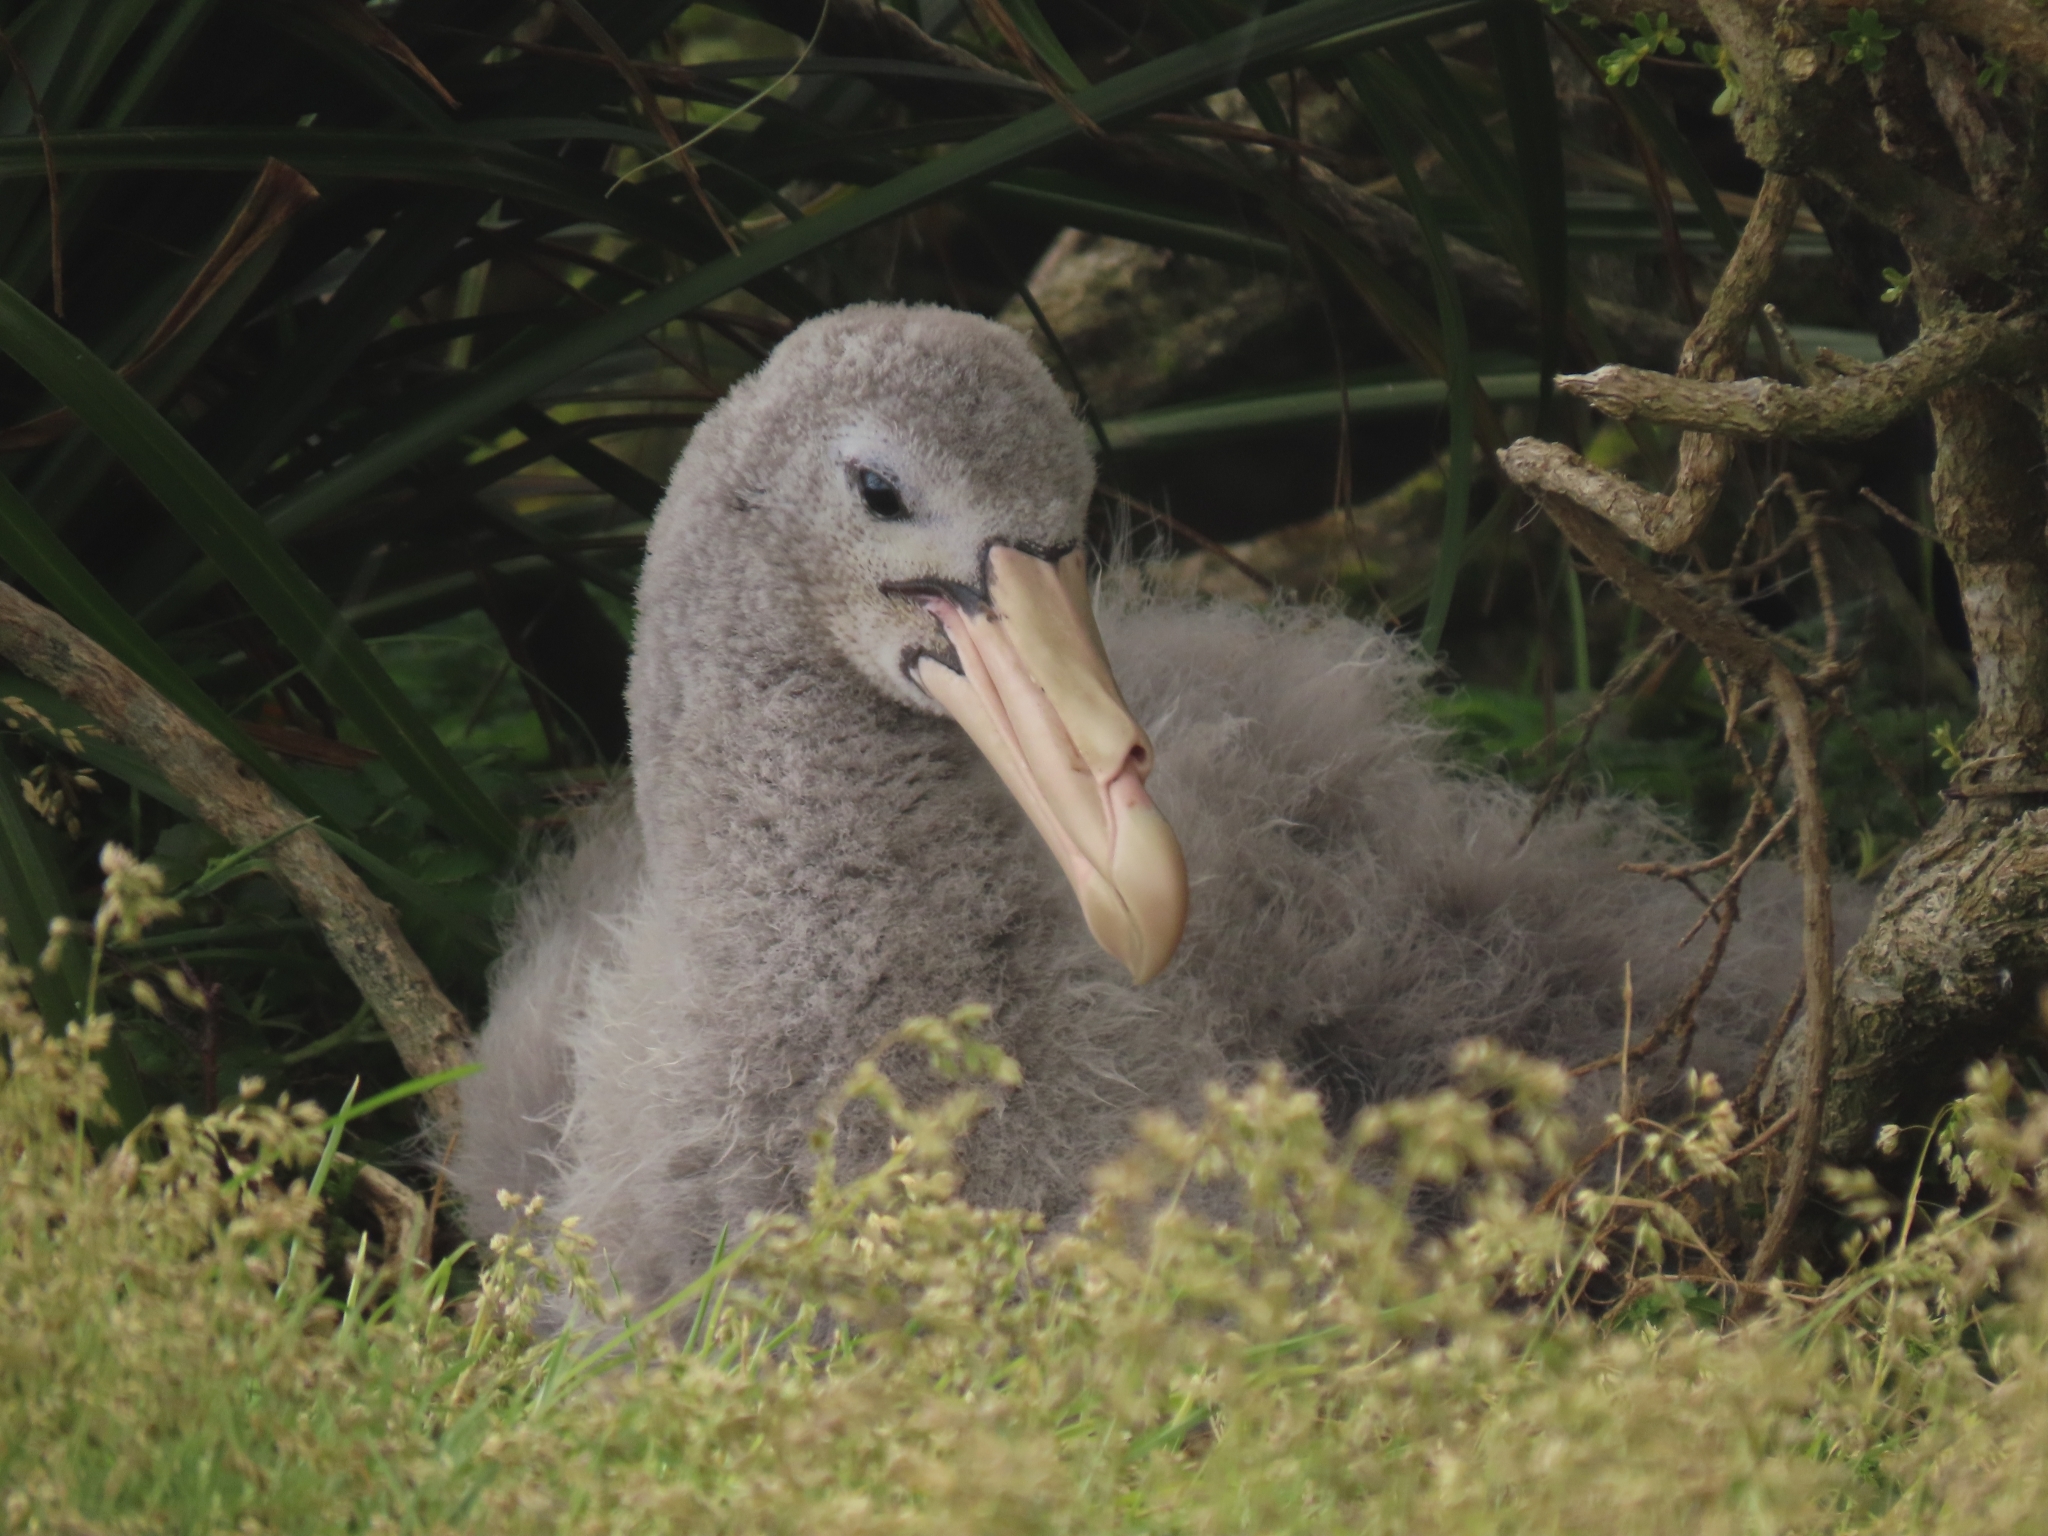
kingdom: Animalia
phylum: Chordata
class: Aves
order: Procellariiformes
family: Procellariidae
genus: Macronectes
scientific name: Macronectes halli
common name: Northern giant petrel
